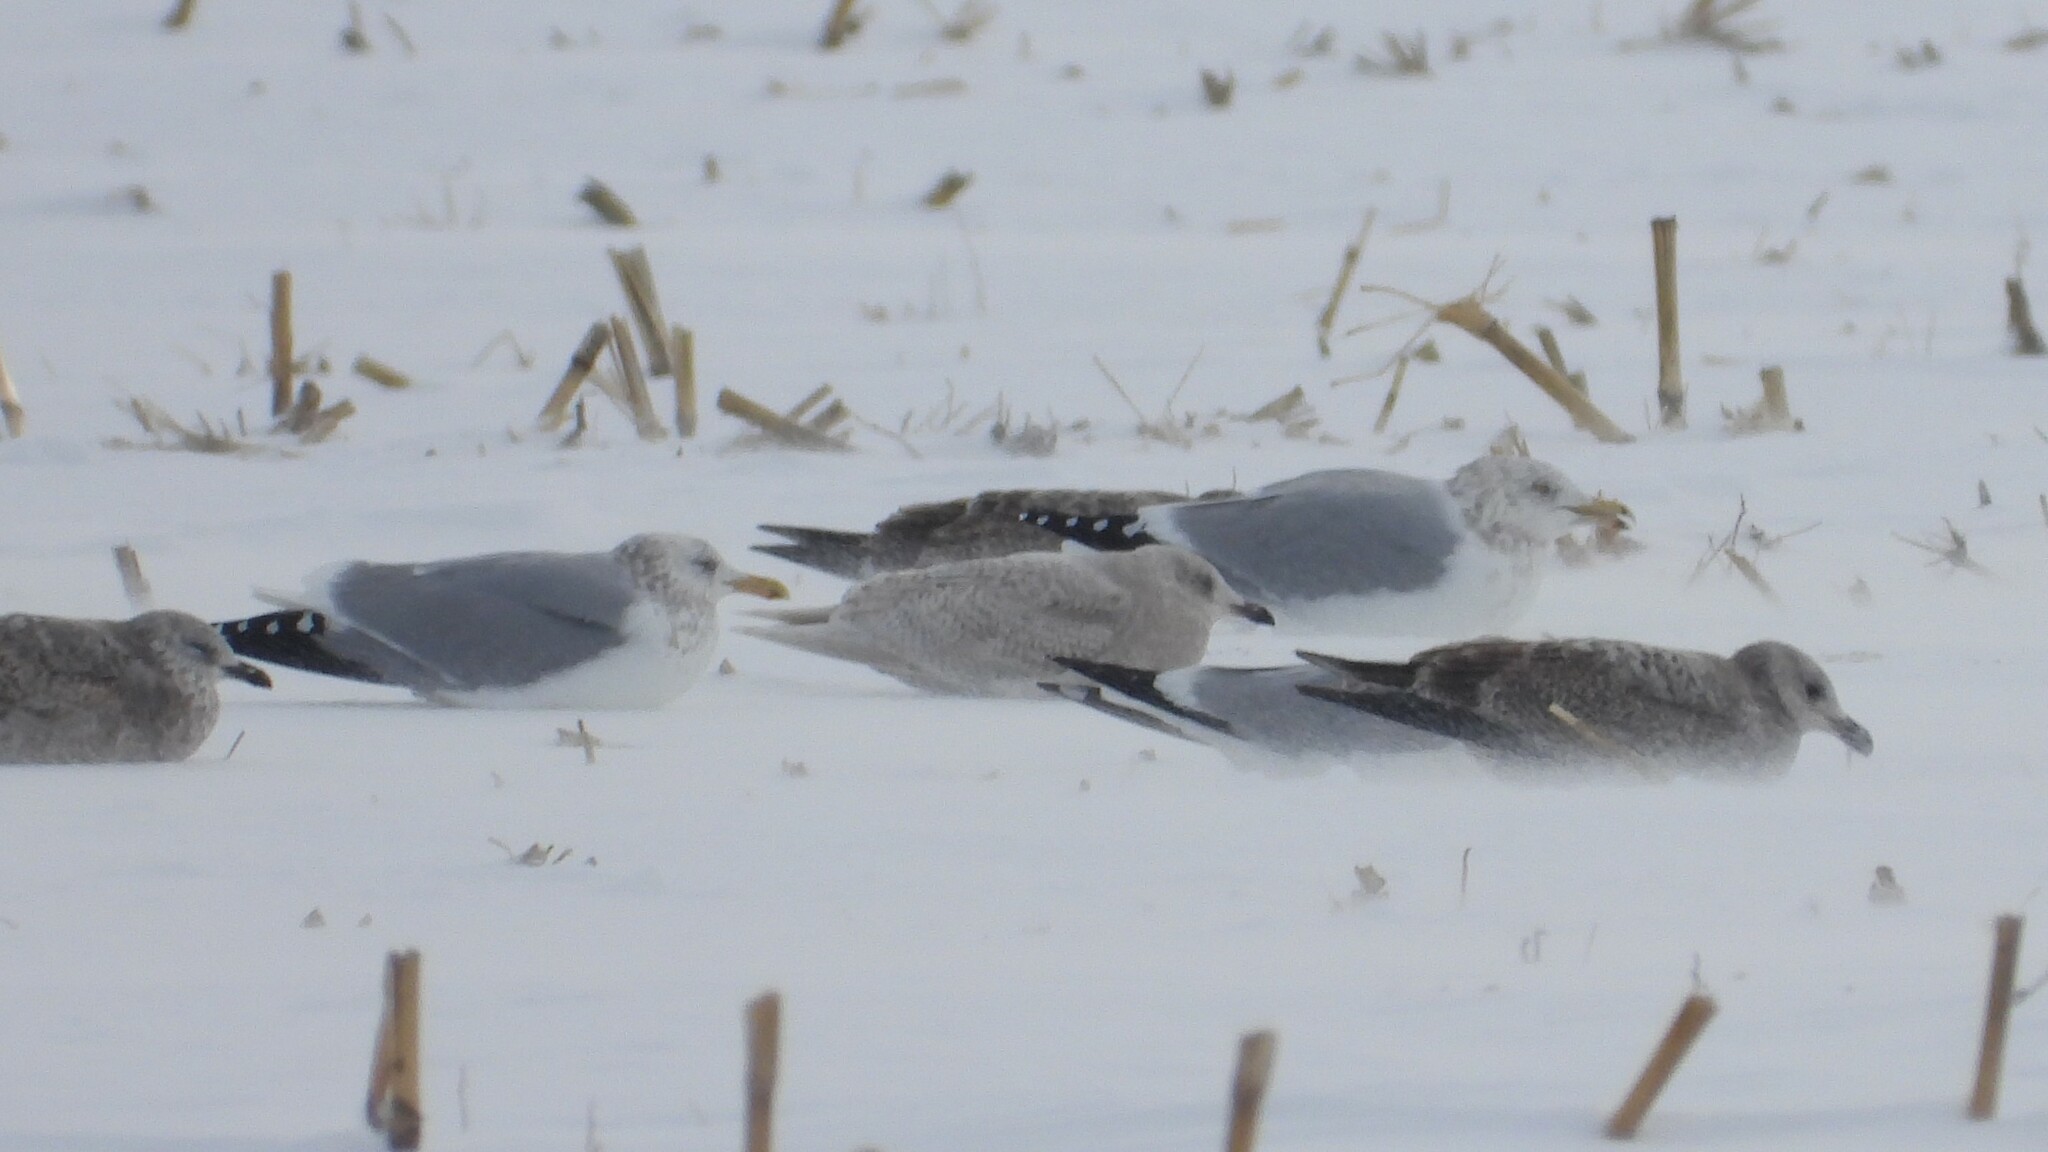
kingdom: Animalia
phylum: Chordata
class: Aves
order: Charadriiformes
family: Laridae
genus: Larus
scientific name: Larus glaucoides
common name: Iceland gull
